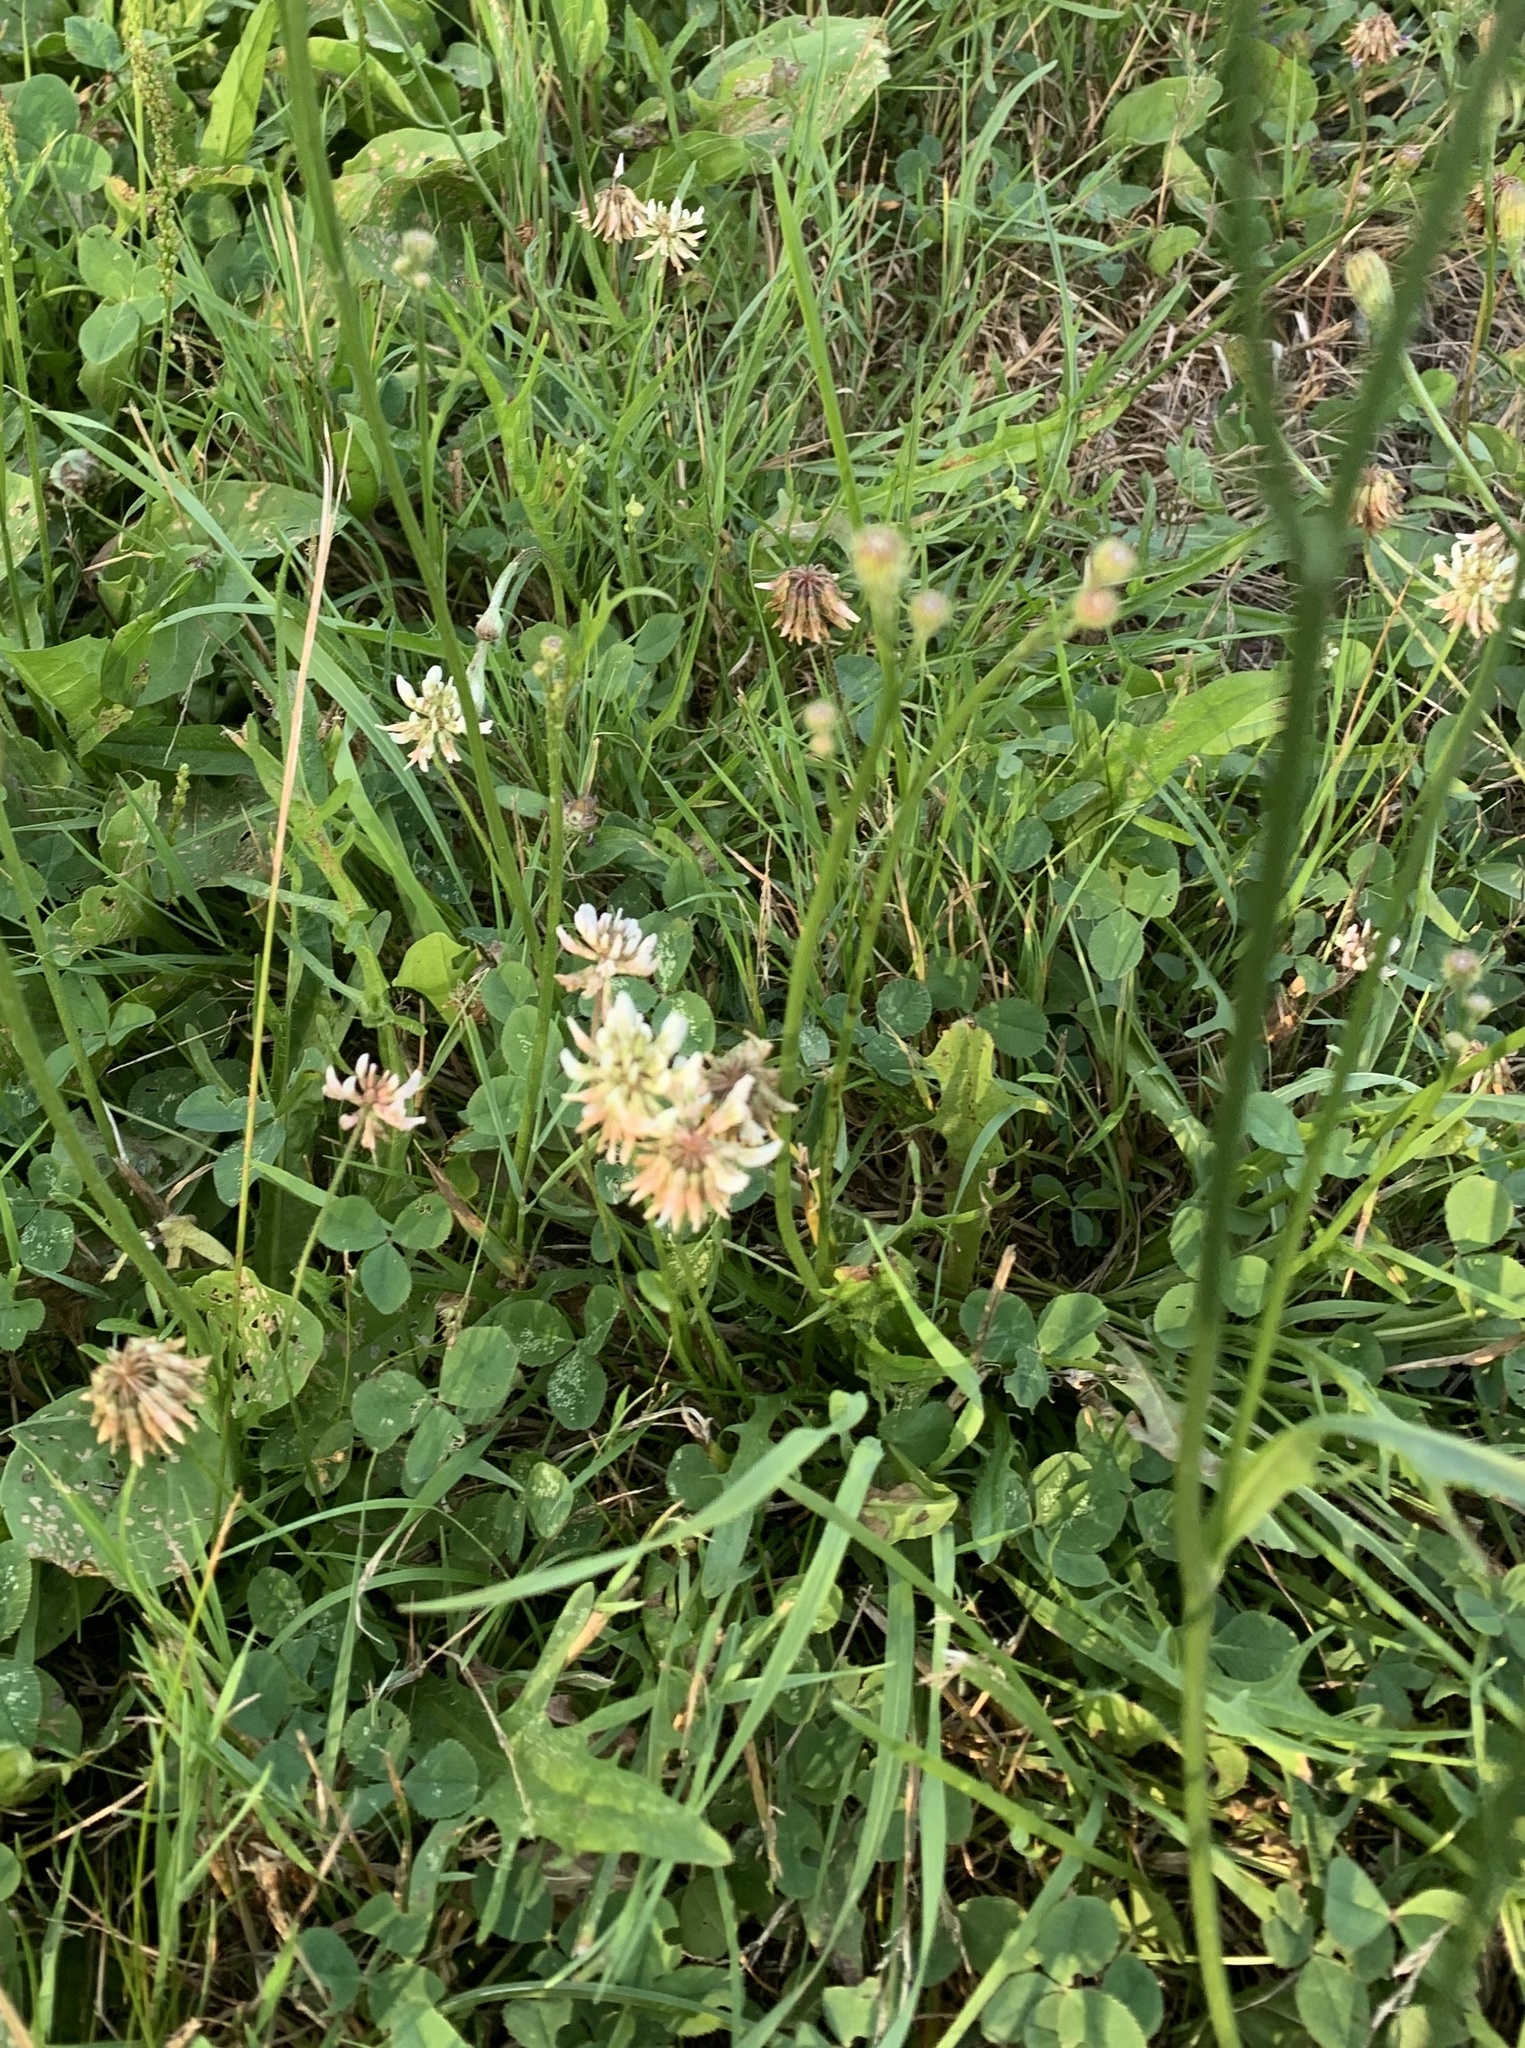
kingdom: Plantae
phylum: Tracheophyta
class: Magnoliopsida
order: Fabales
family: Fabaceae
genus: Trifolium
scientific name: Trifolium repens
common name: White clover
